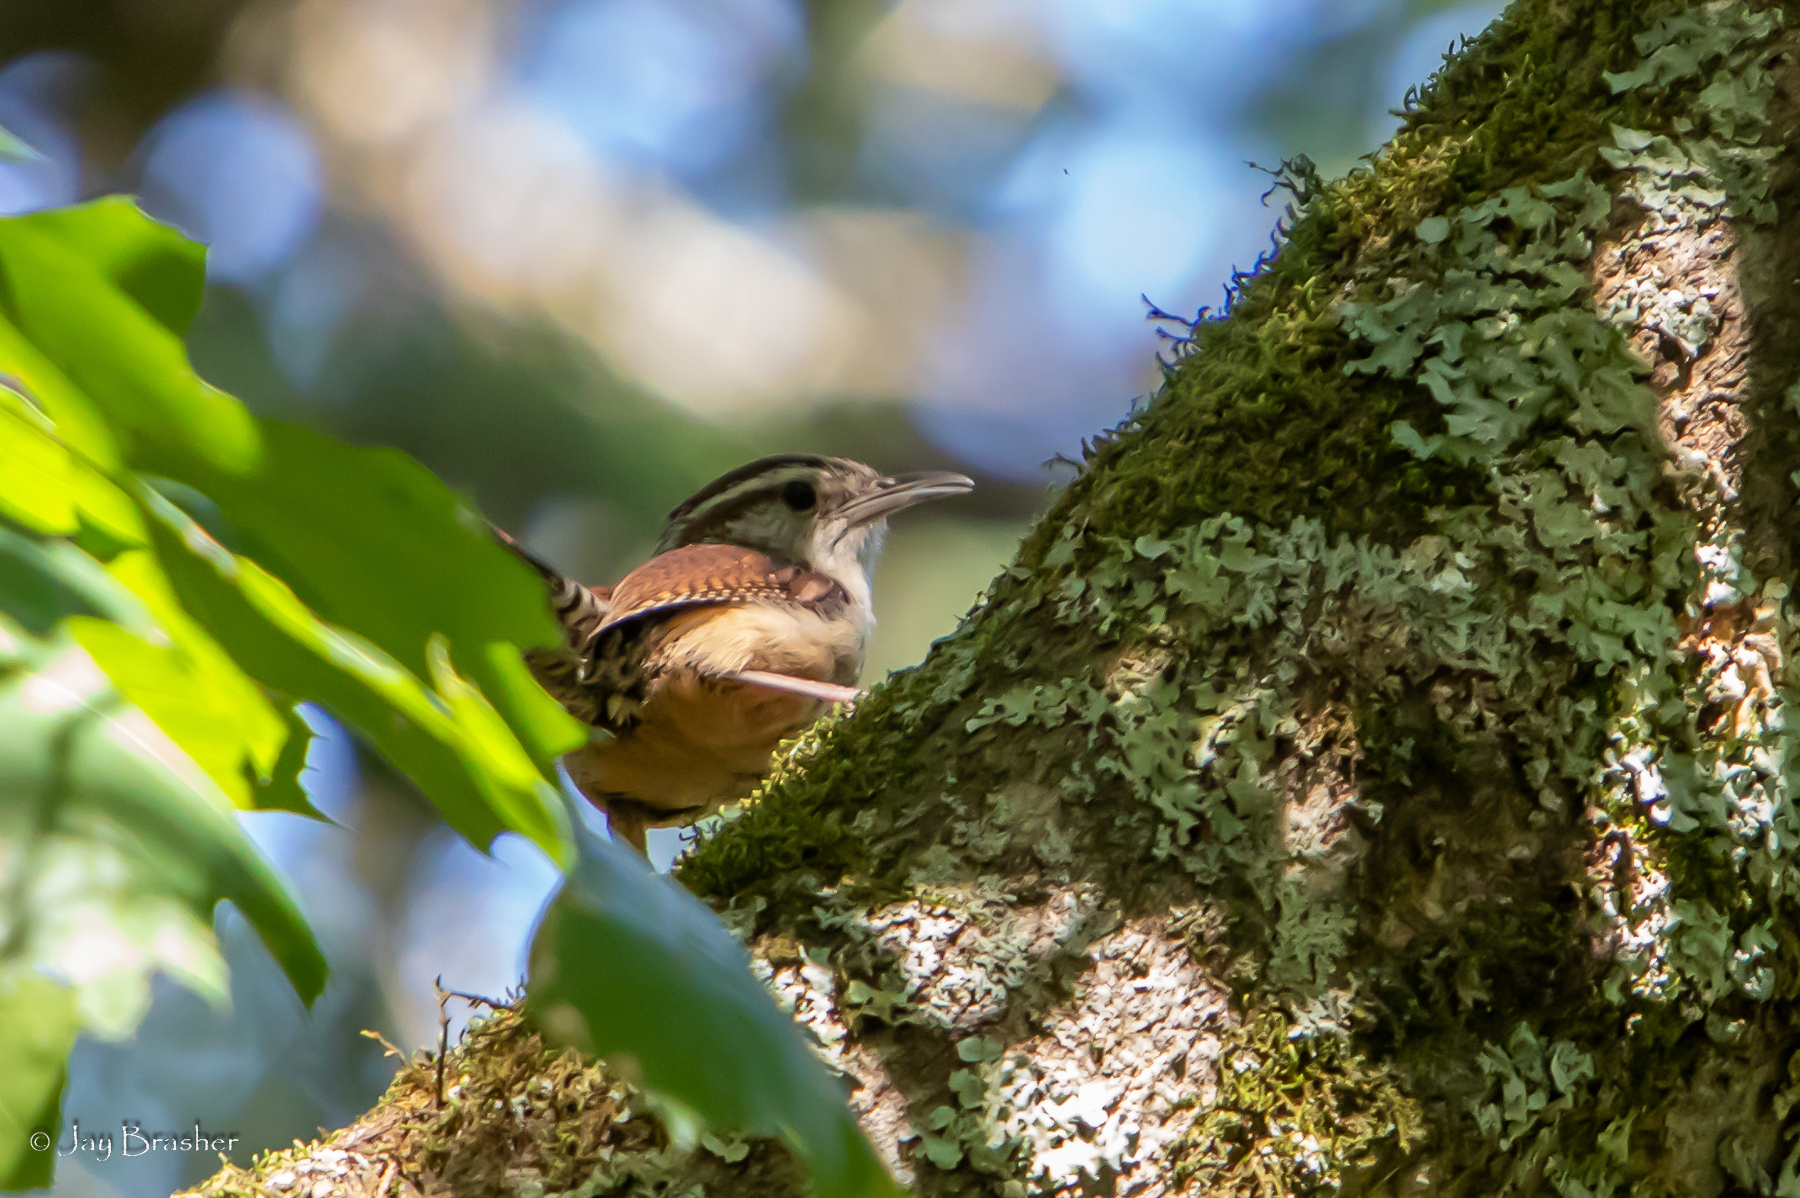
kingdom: Animalia
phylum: Chordata
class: Aves
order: Passeriformes
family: Troglodytidae
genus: Thryothorus
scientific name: Thryothorus ludovicianus
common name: Carolina wren
